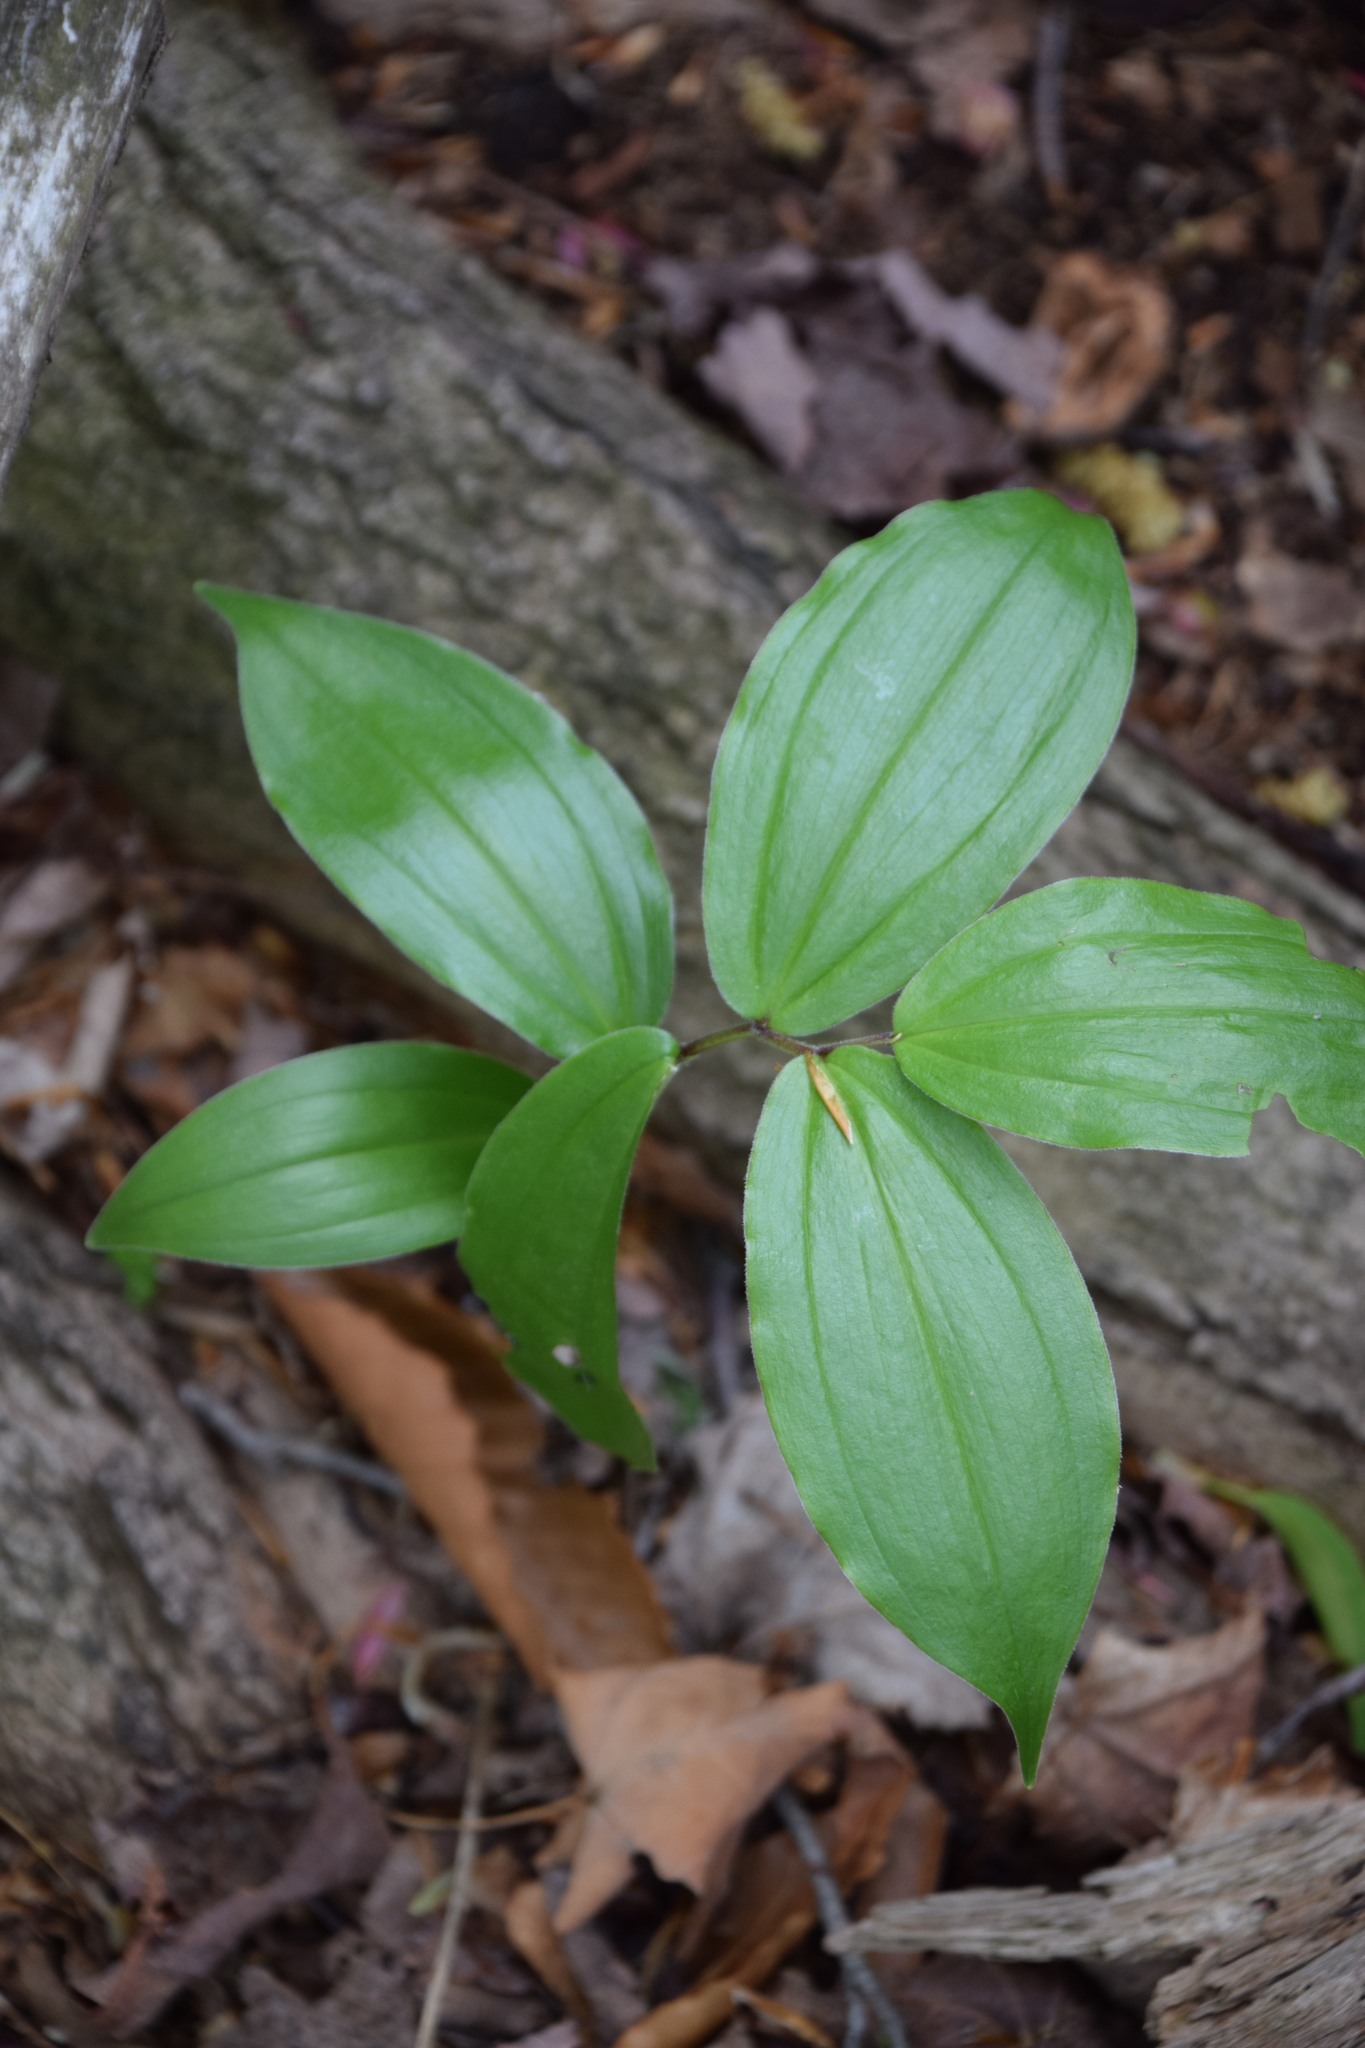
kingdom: Plantae
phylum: Tracheophyta
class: Liliopsida
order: Asparagales
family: Asparagaceae
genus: Maianthemum
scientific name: Maianthemum racemosum
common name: False spikenard
